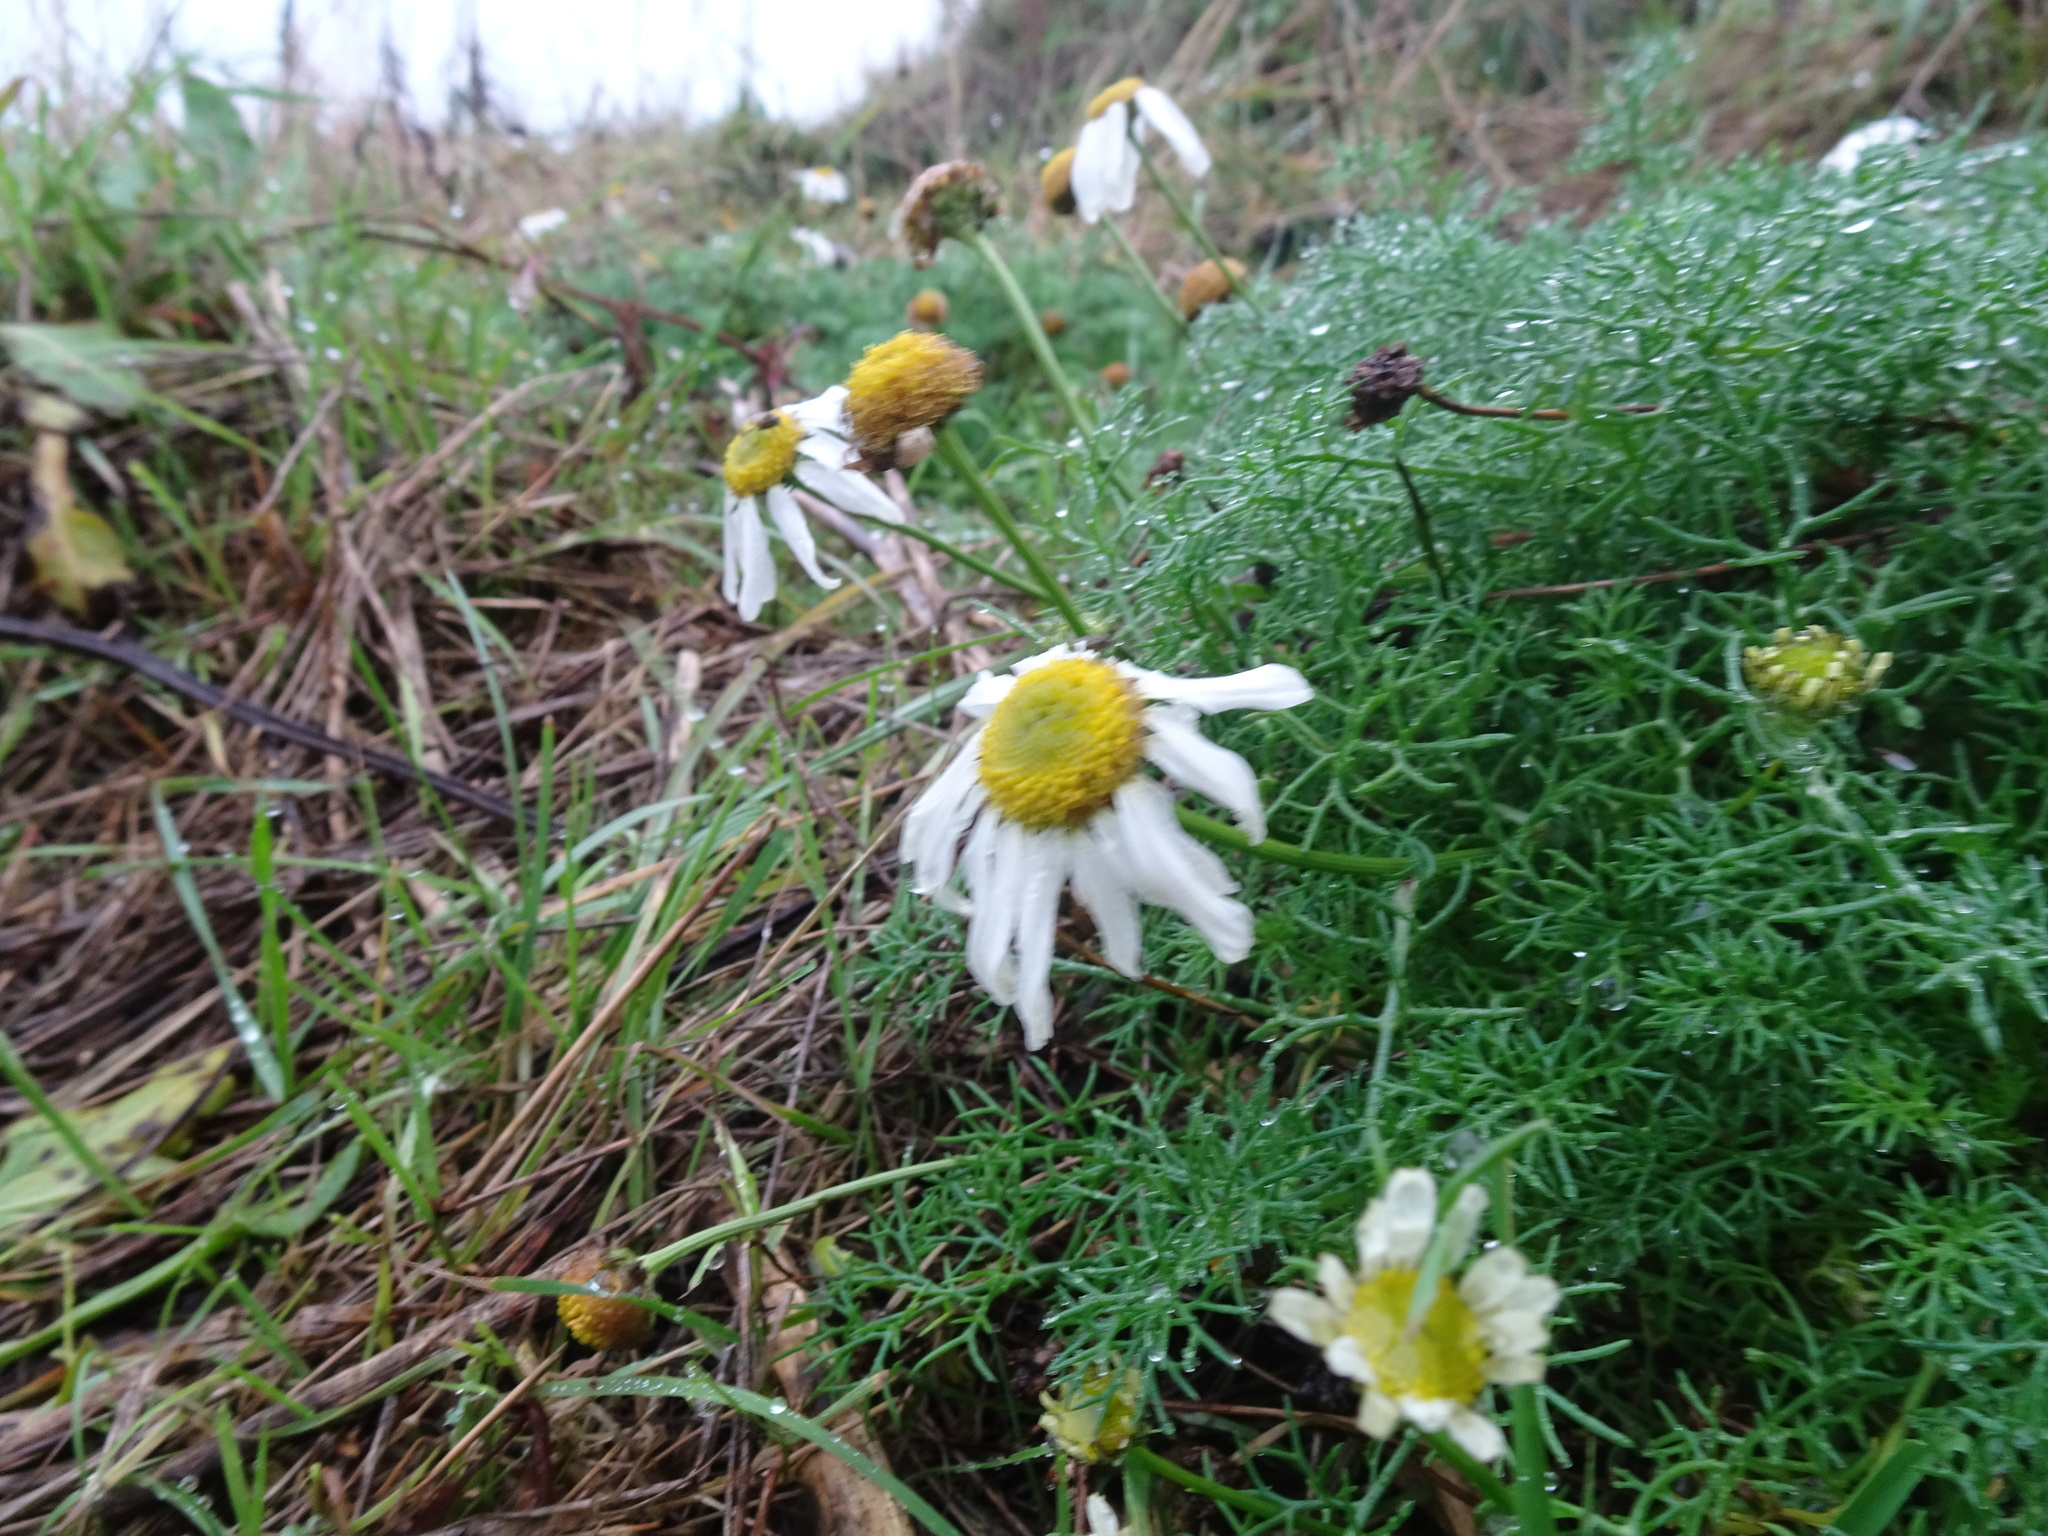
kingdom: Plantae
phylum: Tracheophyta
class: Magnoliopsida
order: Asterales
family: Asteraceae
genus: Tripleurospermum
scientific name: Tripleurospermum maritimum
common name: Sea mayweed
